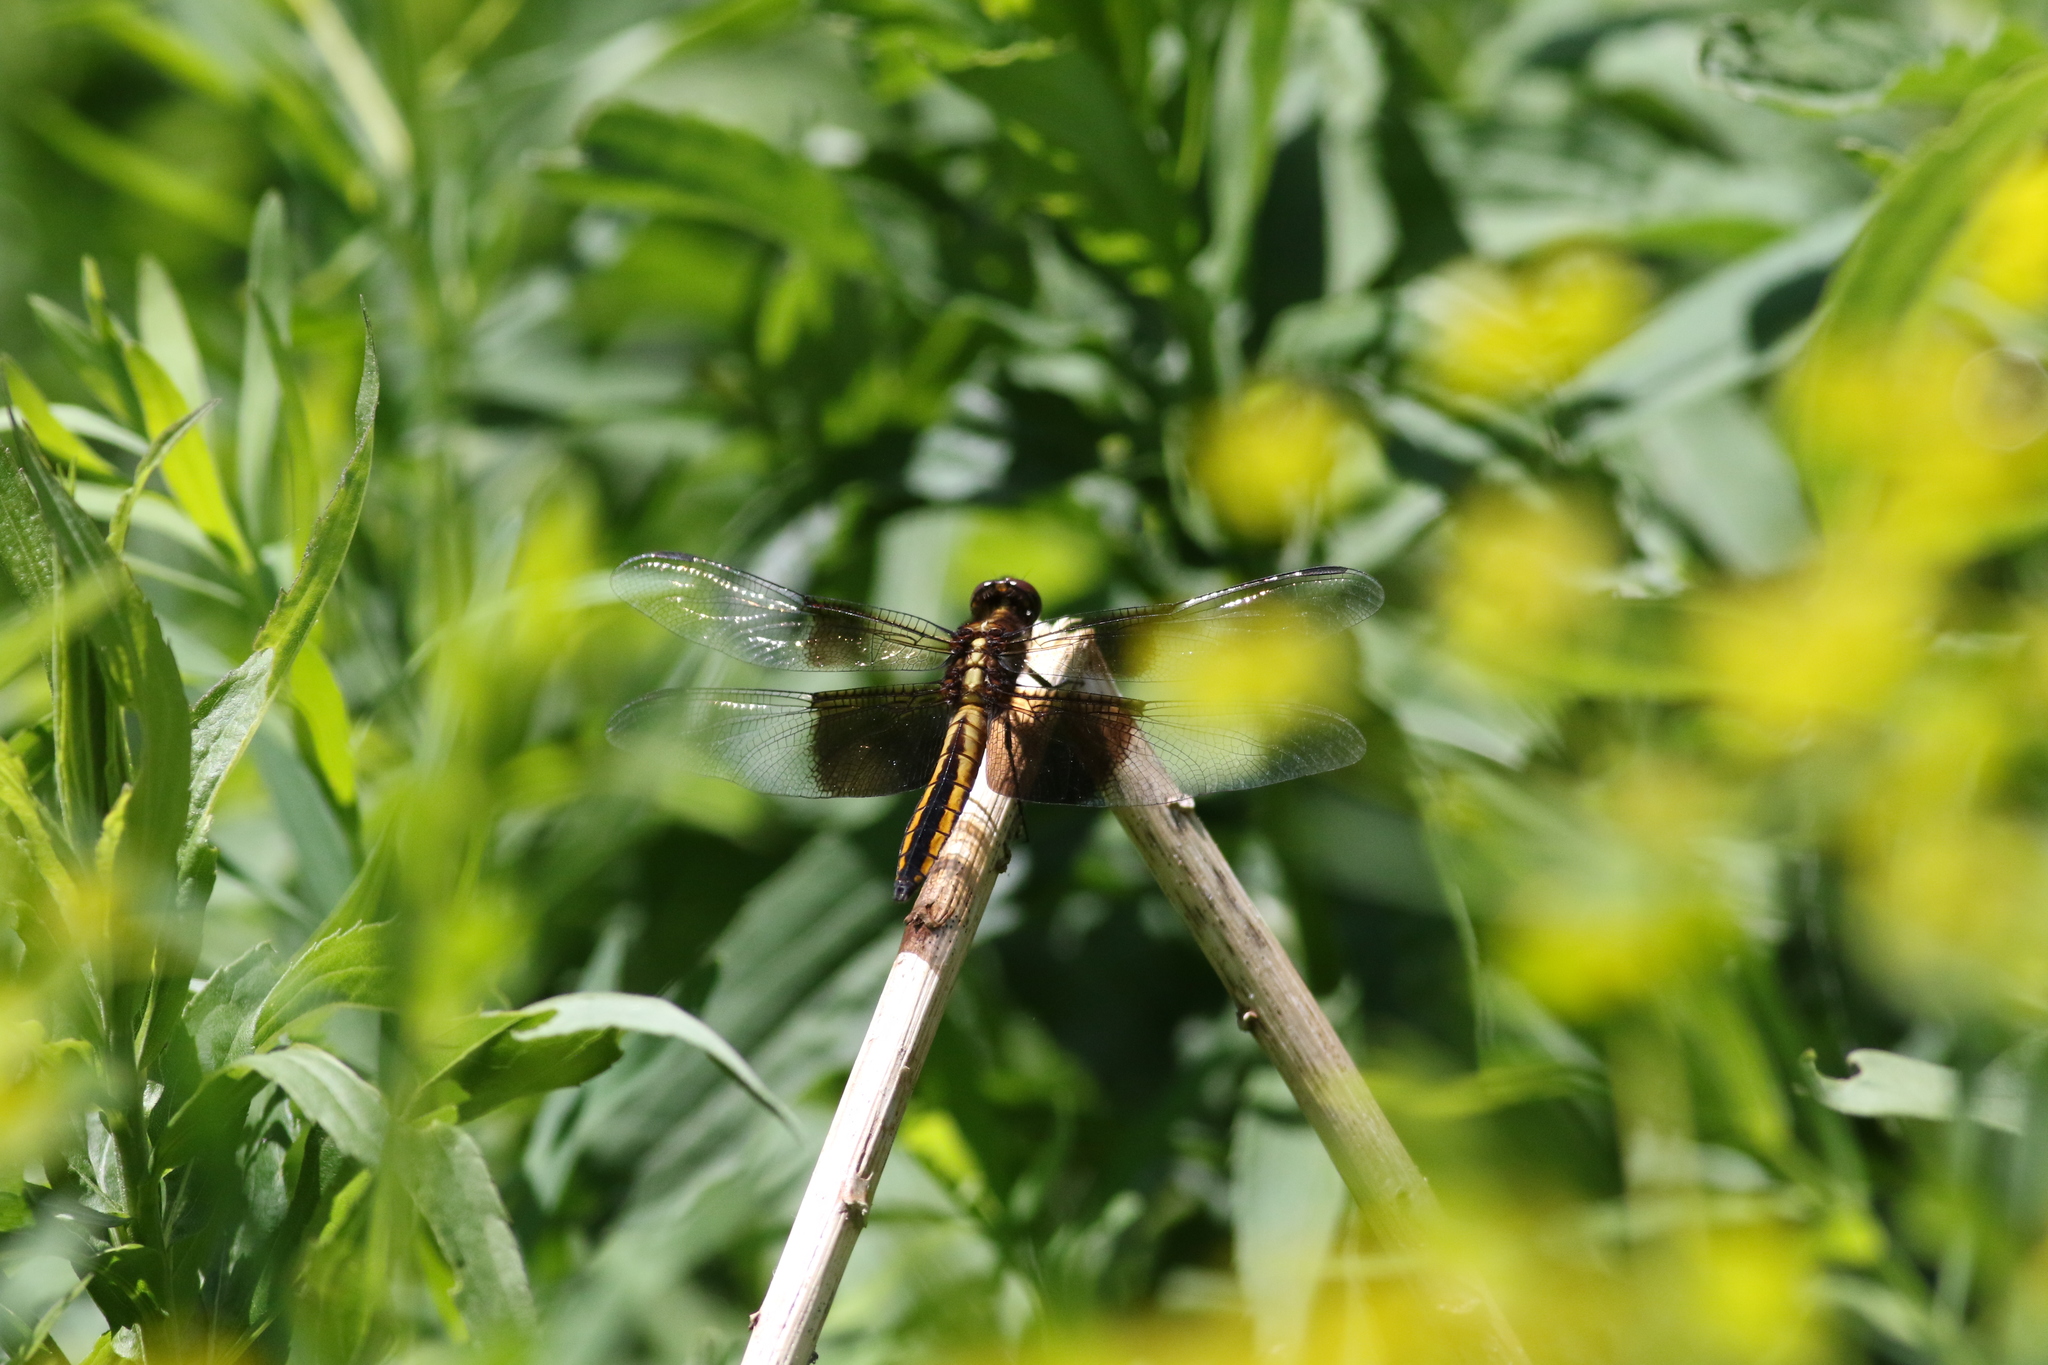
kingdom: Animalia
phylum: Arthropoda
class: Insecta
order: Odonata
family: Libellulidae
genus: Libellula
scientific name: Libellula luctuosa
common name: Widow skimmer
